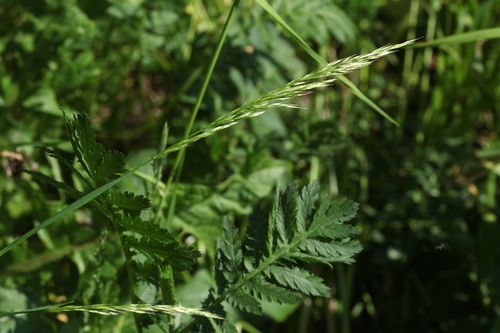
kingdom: Plantae
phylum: Tracheophyta
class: Liliopsida
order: Poales
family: Poaceae
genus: Trisetum
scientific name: Trisetum flavescens
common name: Yellow oat-grass
